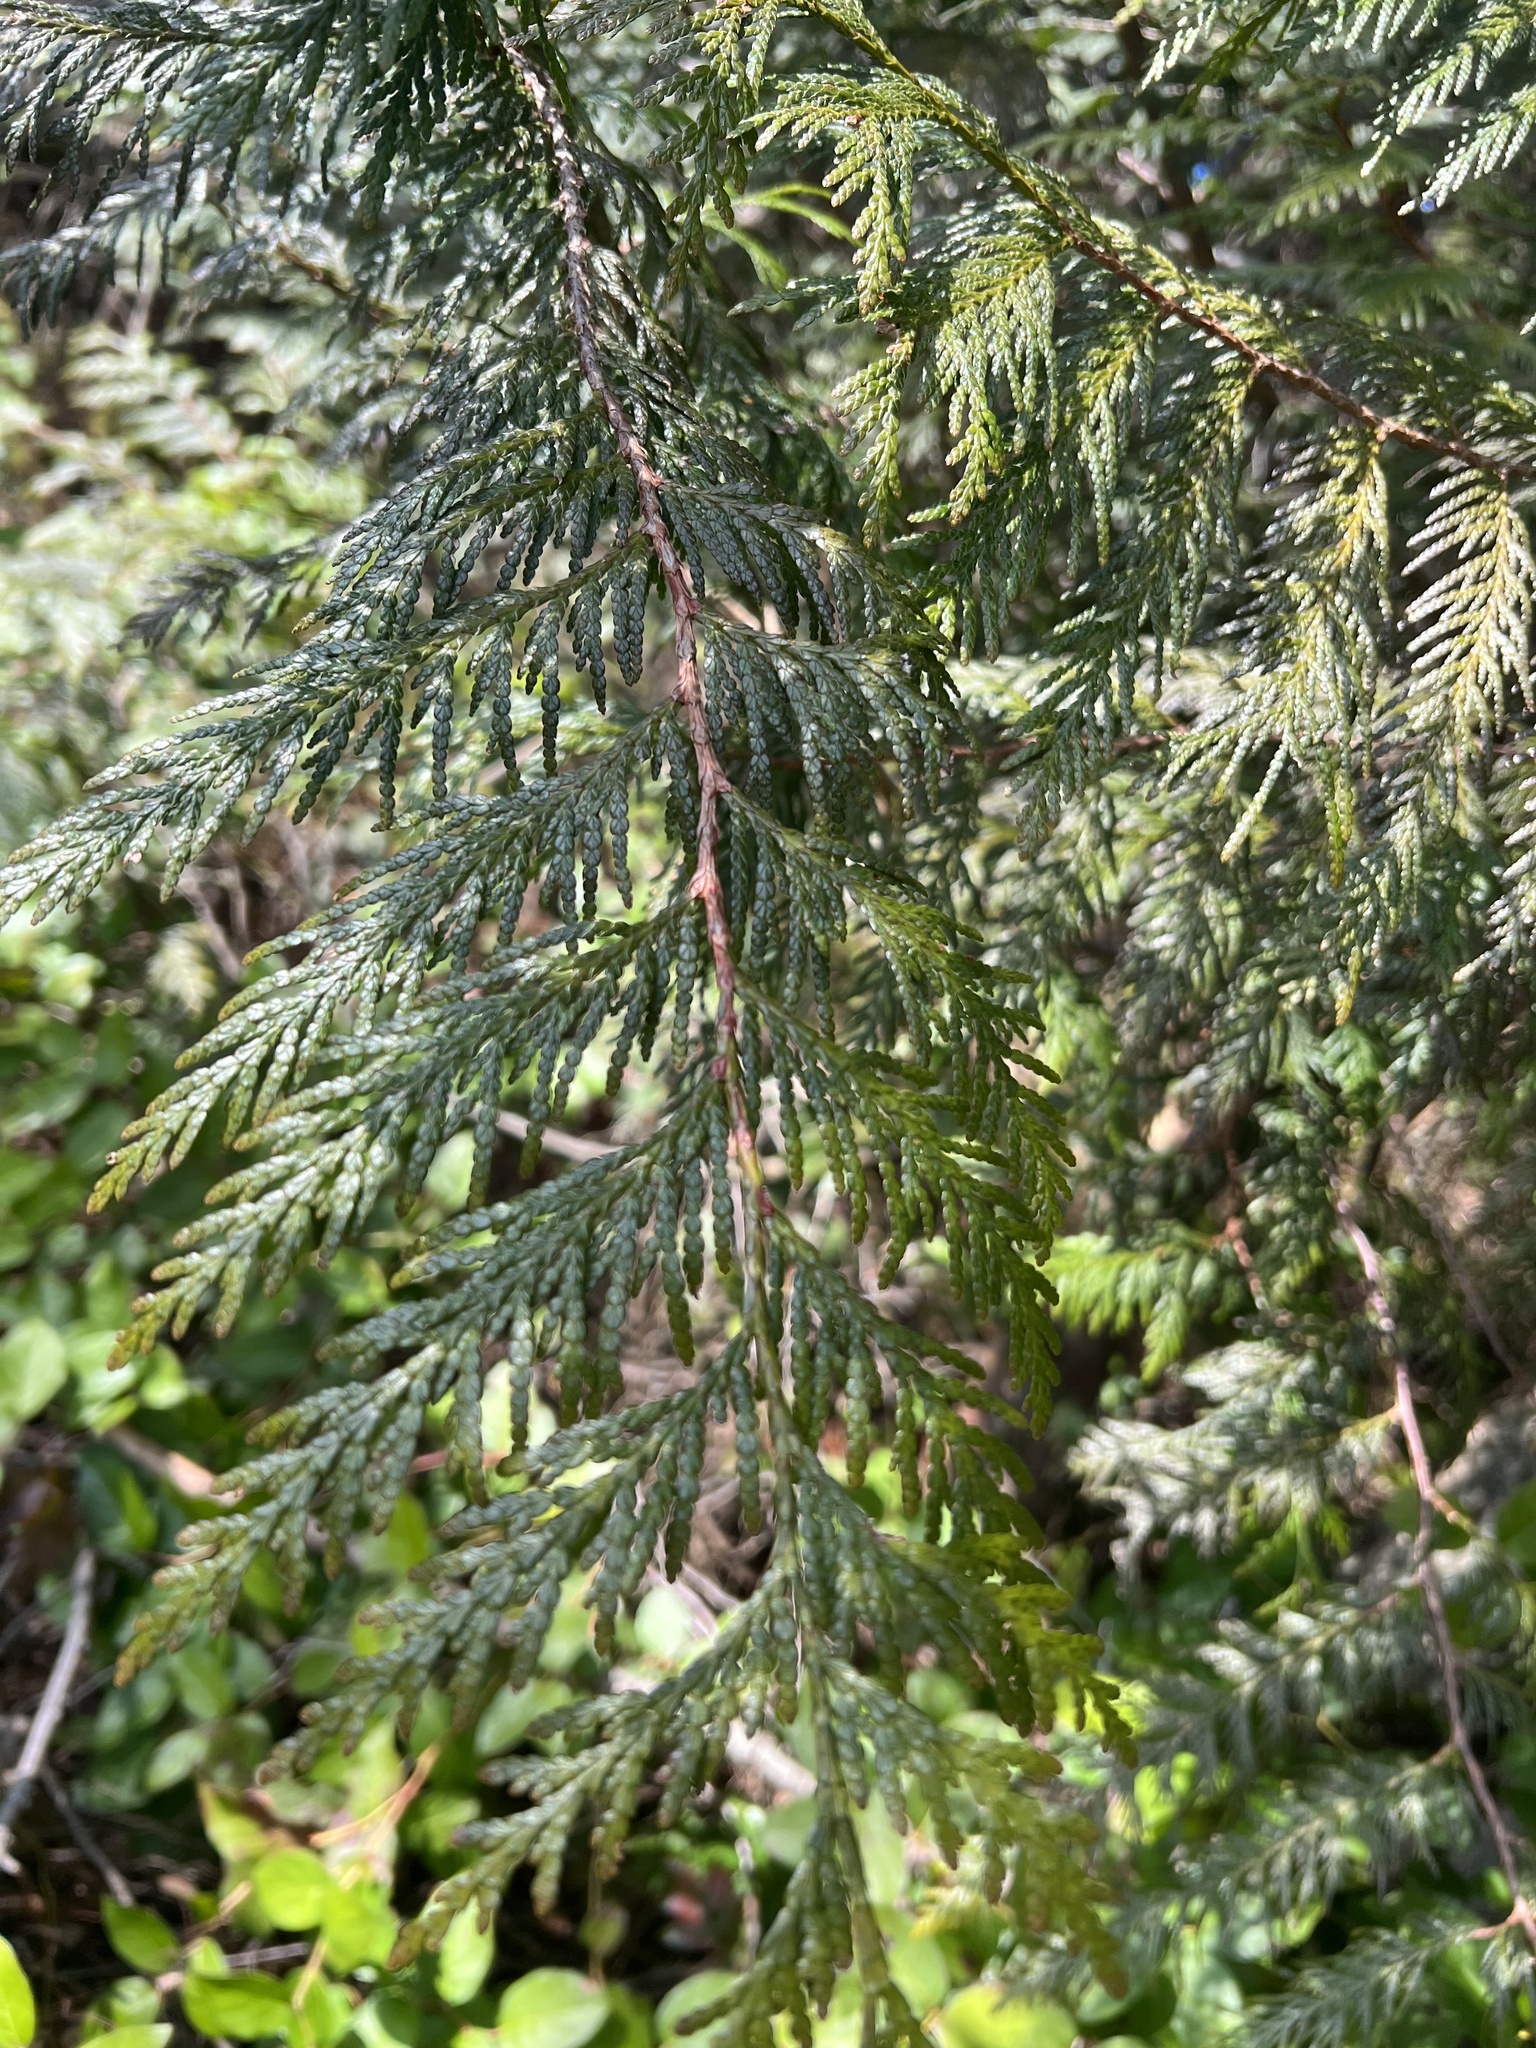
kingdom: Plantae
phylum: Tracheophyta
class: Pinopsida
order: Pinales
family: Cupressaceae
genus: Thuja
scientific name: Thuja plicata
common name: Western red-cedar
